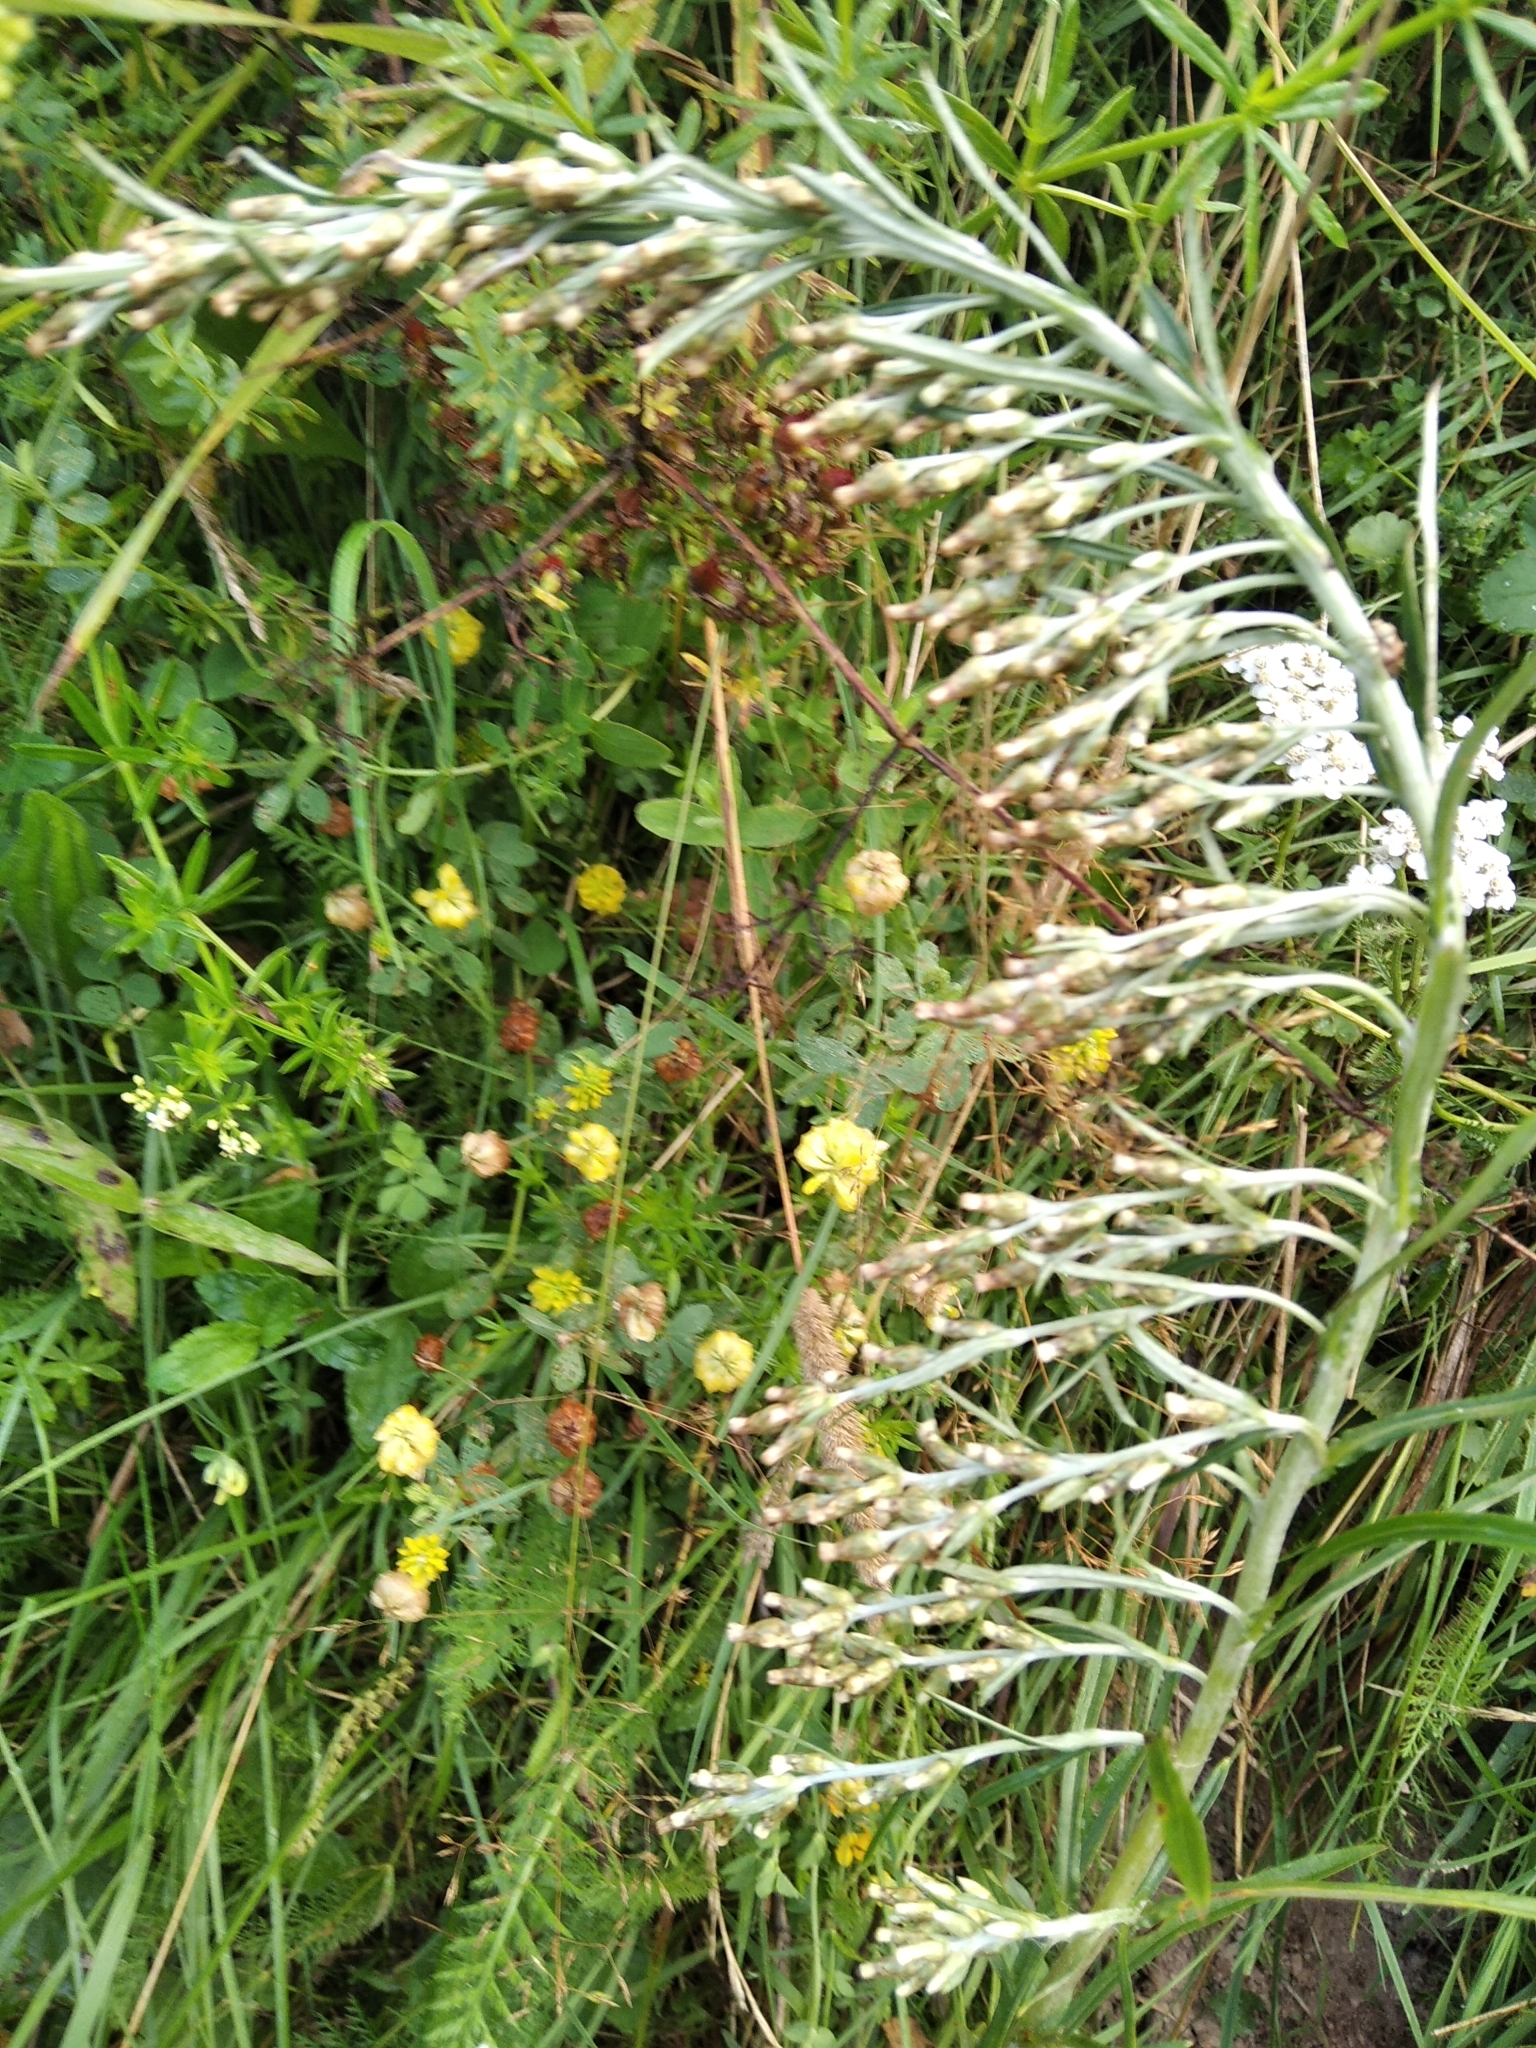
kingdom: Plantae
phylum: Tracheophyta
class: Magnoliopsida
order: Asterales
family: Asteraceae
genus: Omalotheca
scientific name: Omalotheca sylvatica
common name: Heath cudweed
